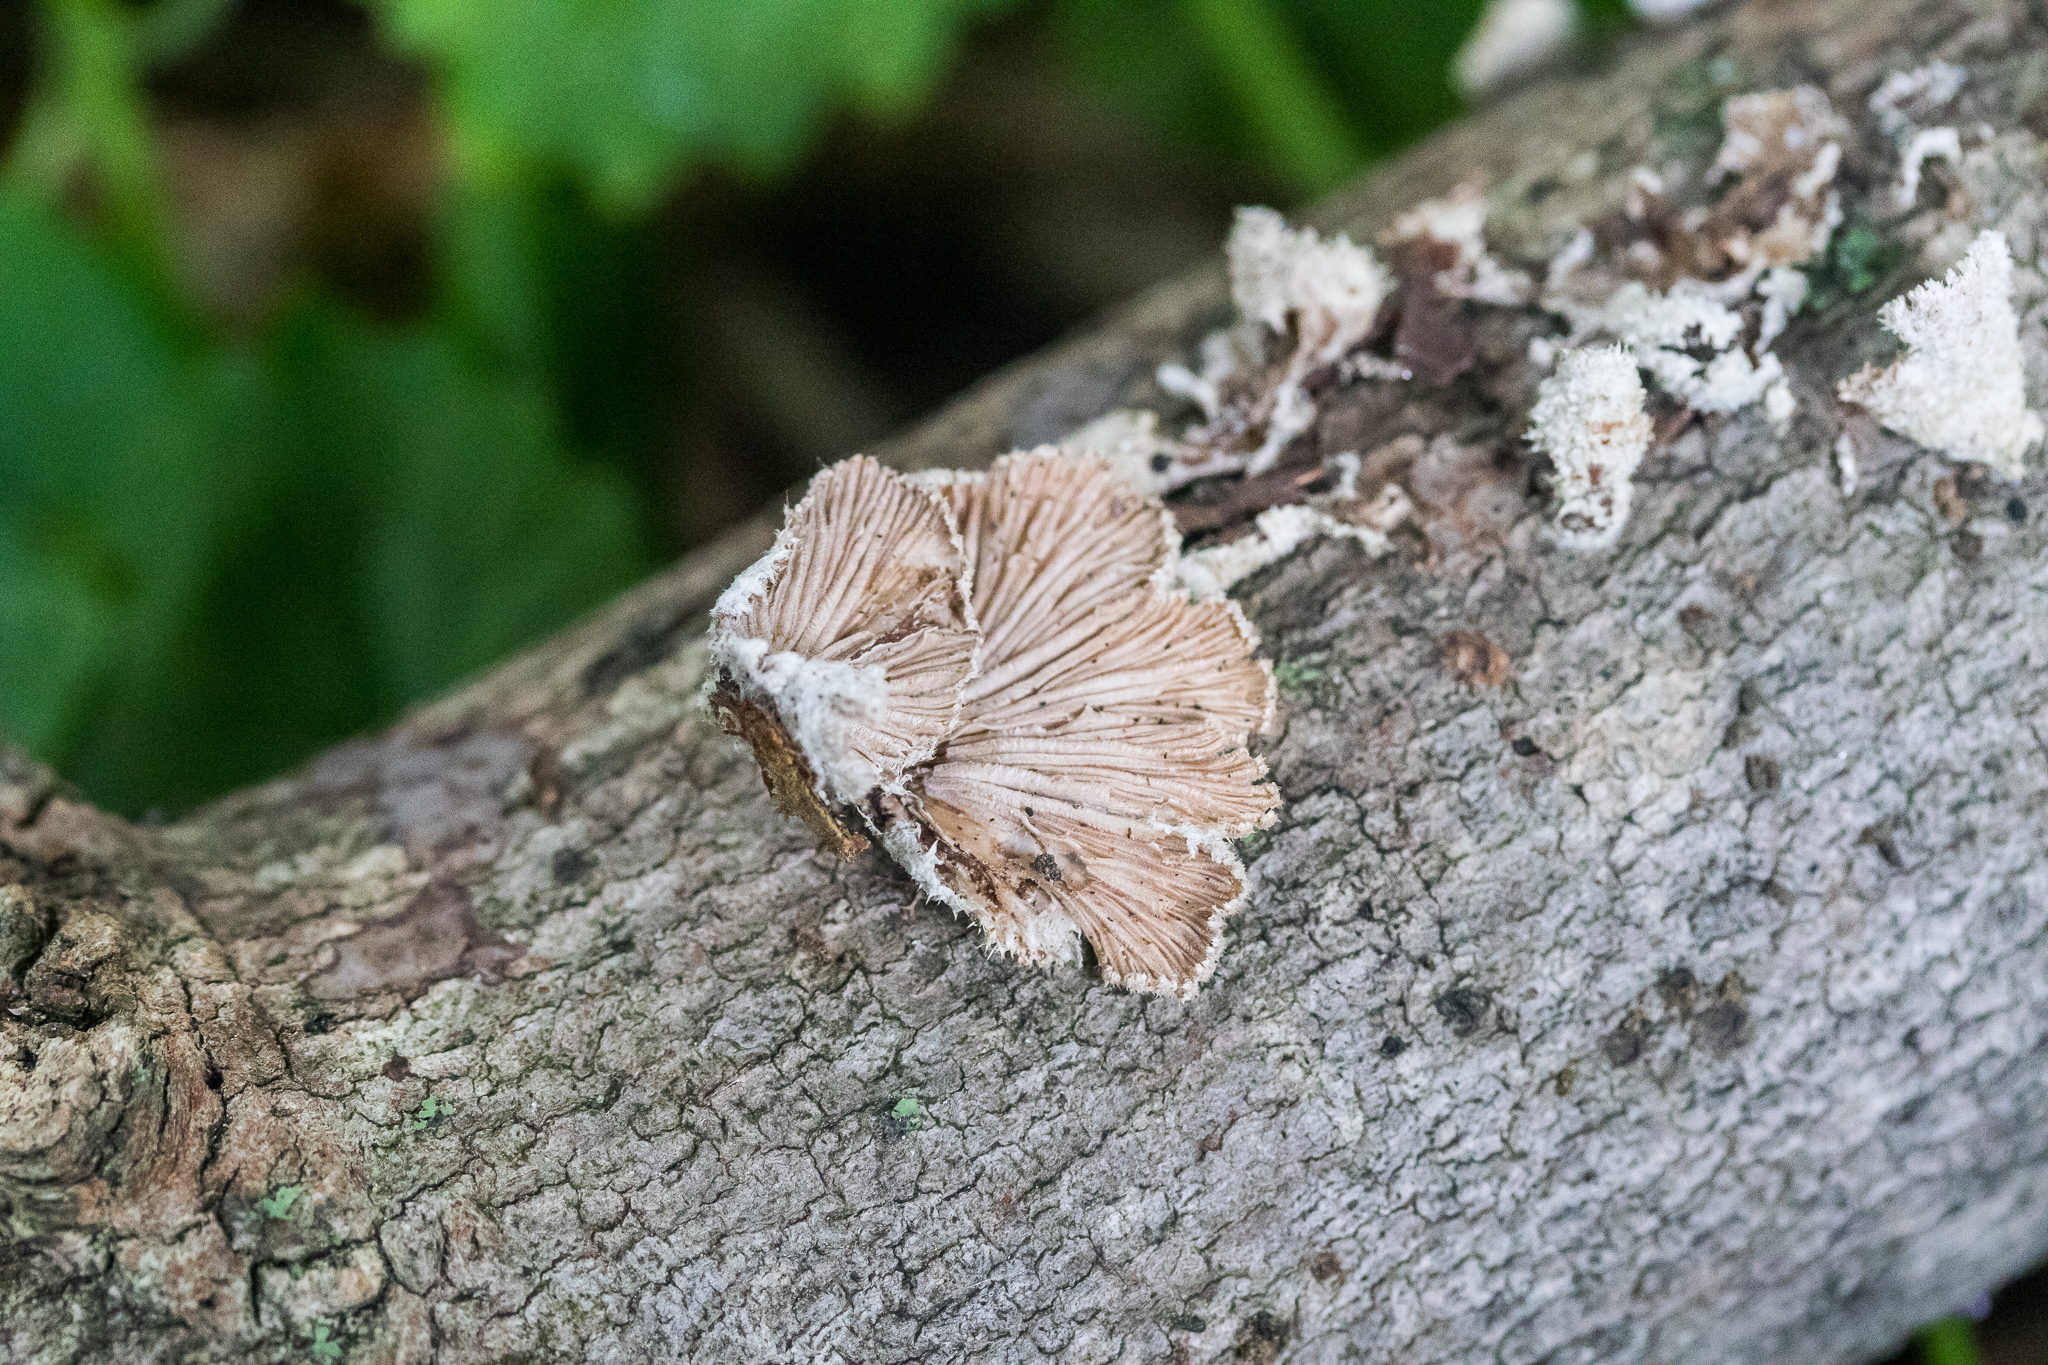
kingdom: Fungi
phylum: Basidiomycota
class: Agaricomycetes
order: Agaricales
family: Schizophyllaceae
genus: Schizophyllum
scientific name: Schizophyllum commune
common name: Common porecrust
